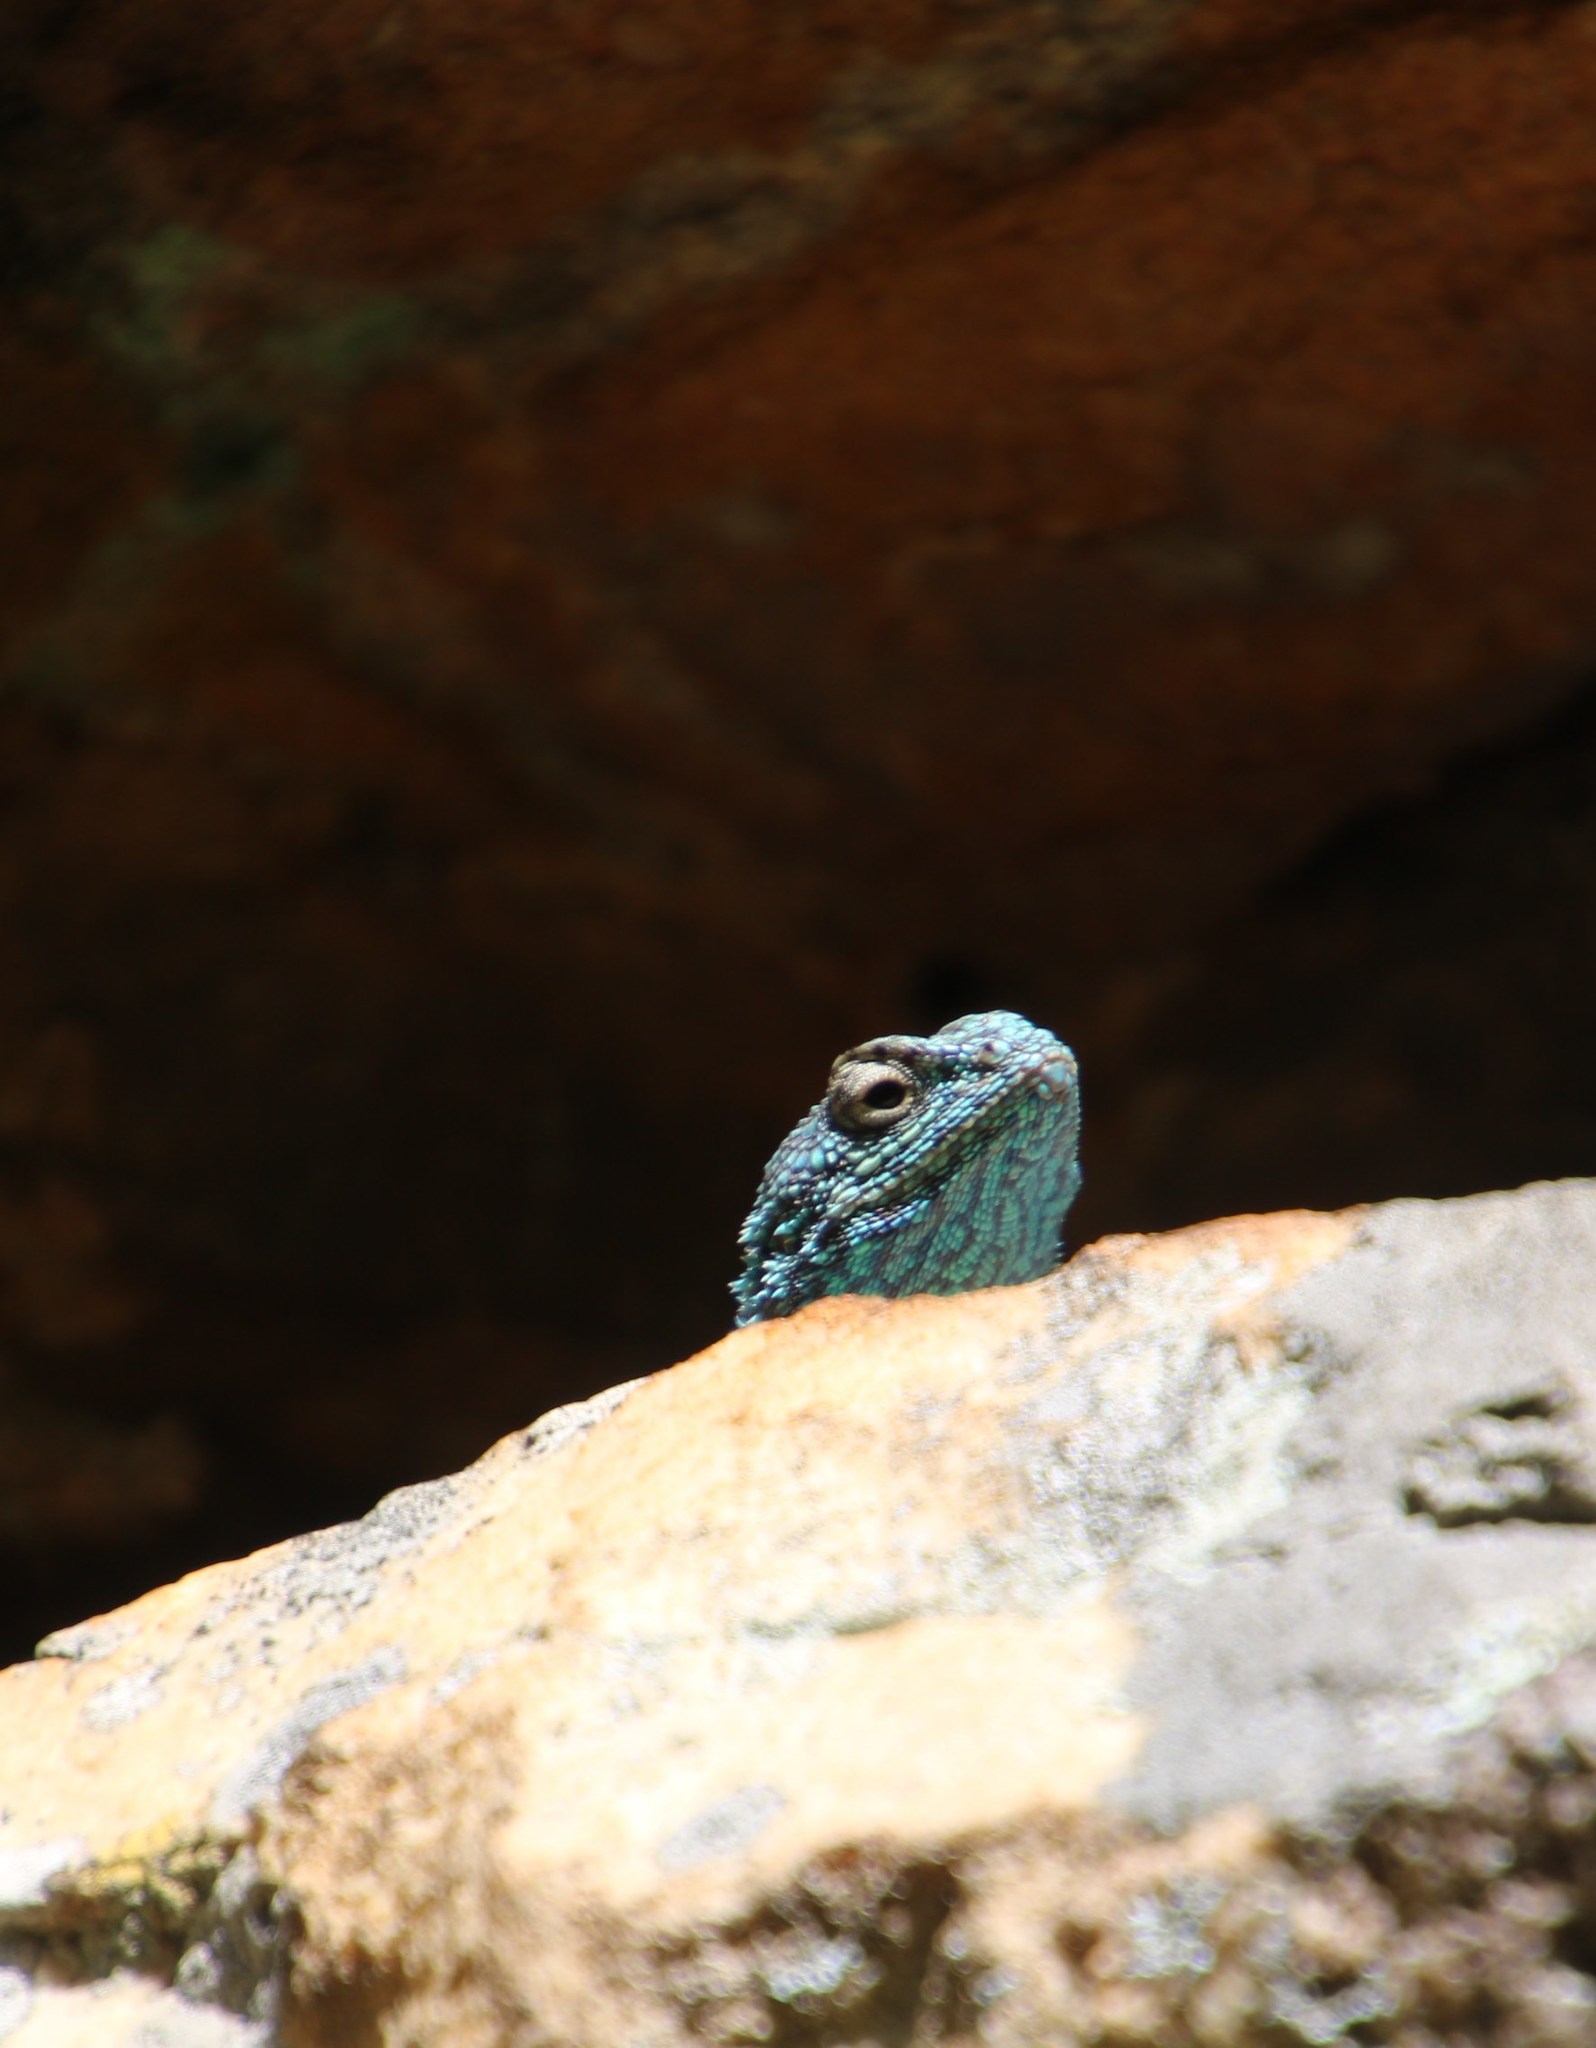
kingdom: Animalia
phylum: Chordata
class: Squamata
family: Agamidae
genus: Agama
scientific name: Agama atra
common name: Southern african rock agama
